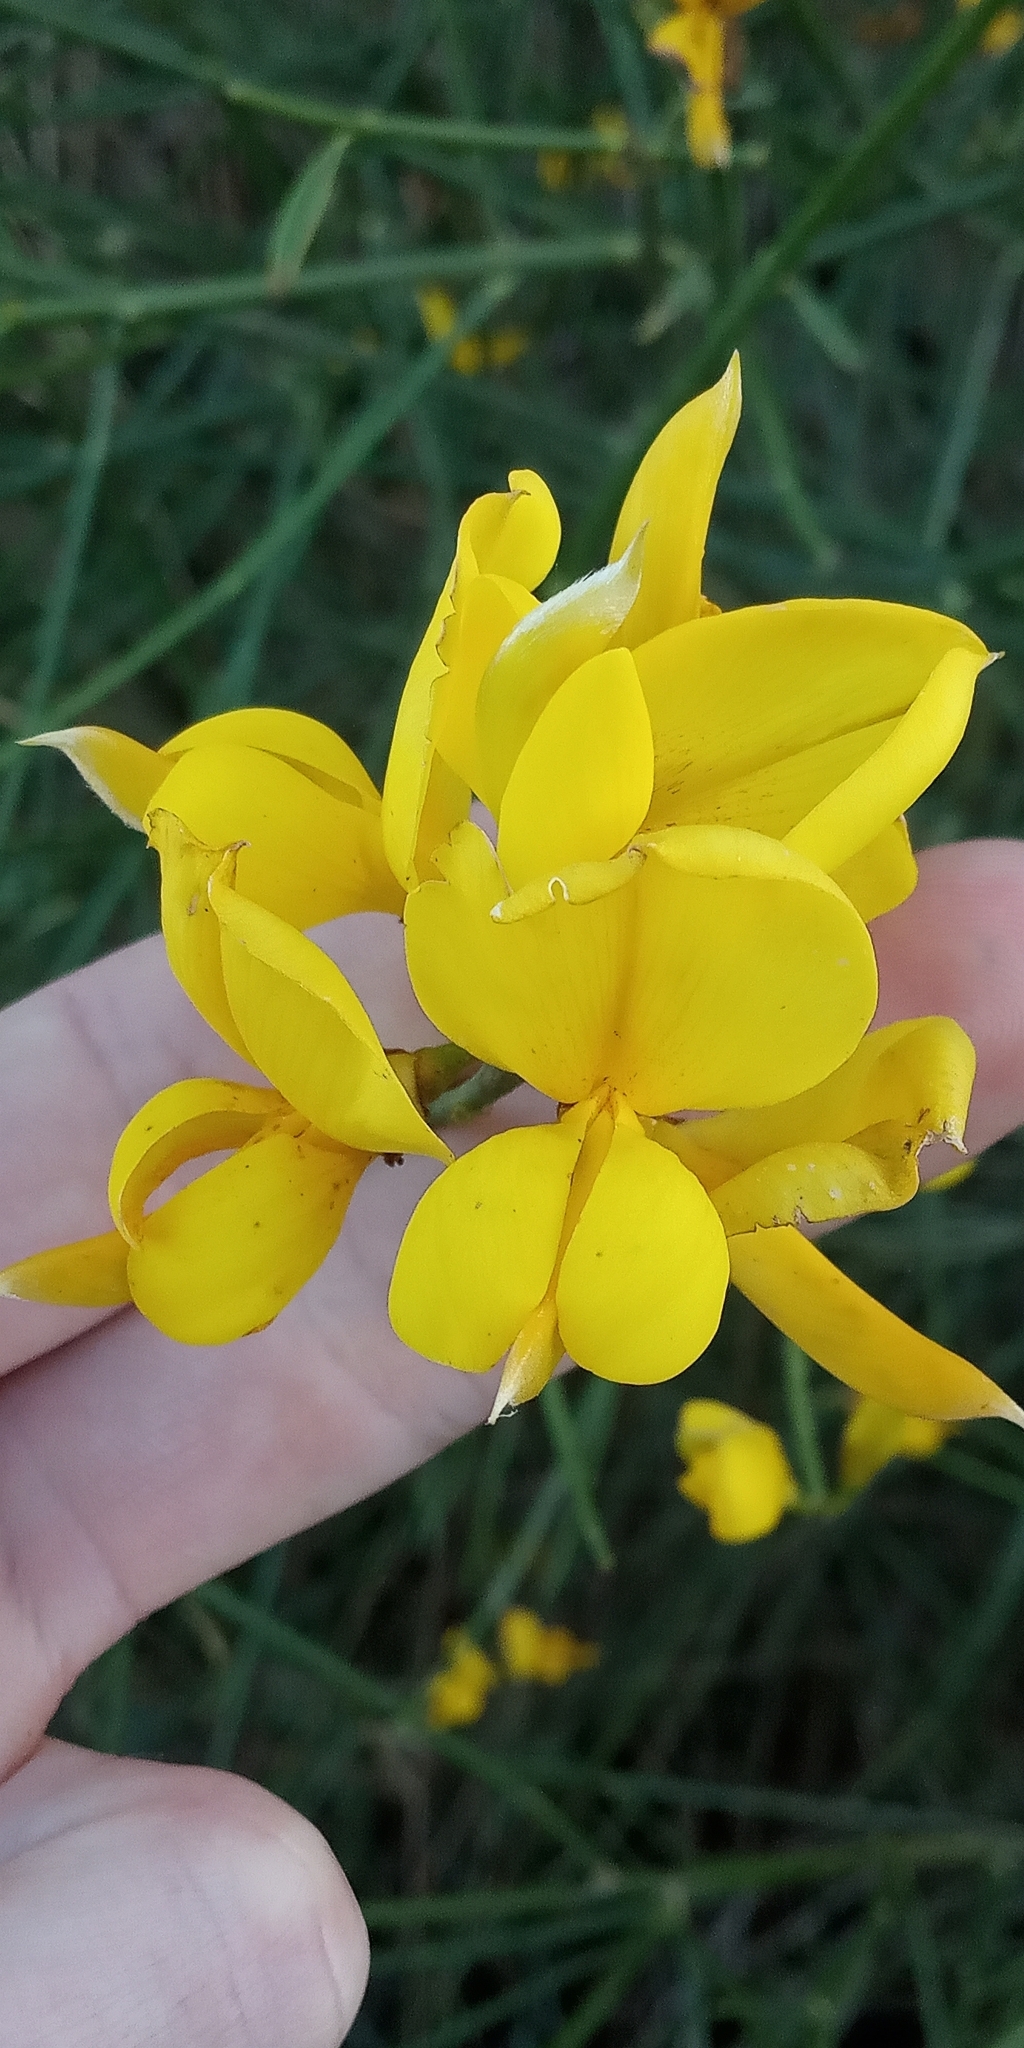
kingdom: Plantae
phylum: Tracheophyta
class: Magnoliopsida
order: Fabales
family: Fabaceae
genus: Spartium
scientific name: Spartium junceum
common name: Spanish broom
